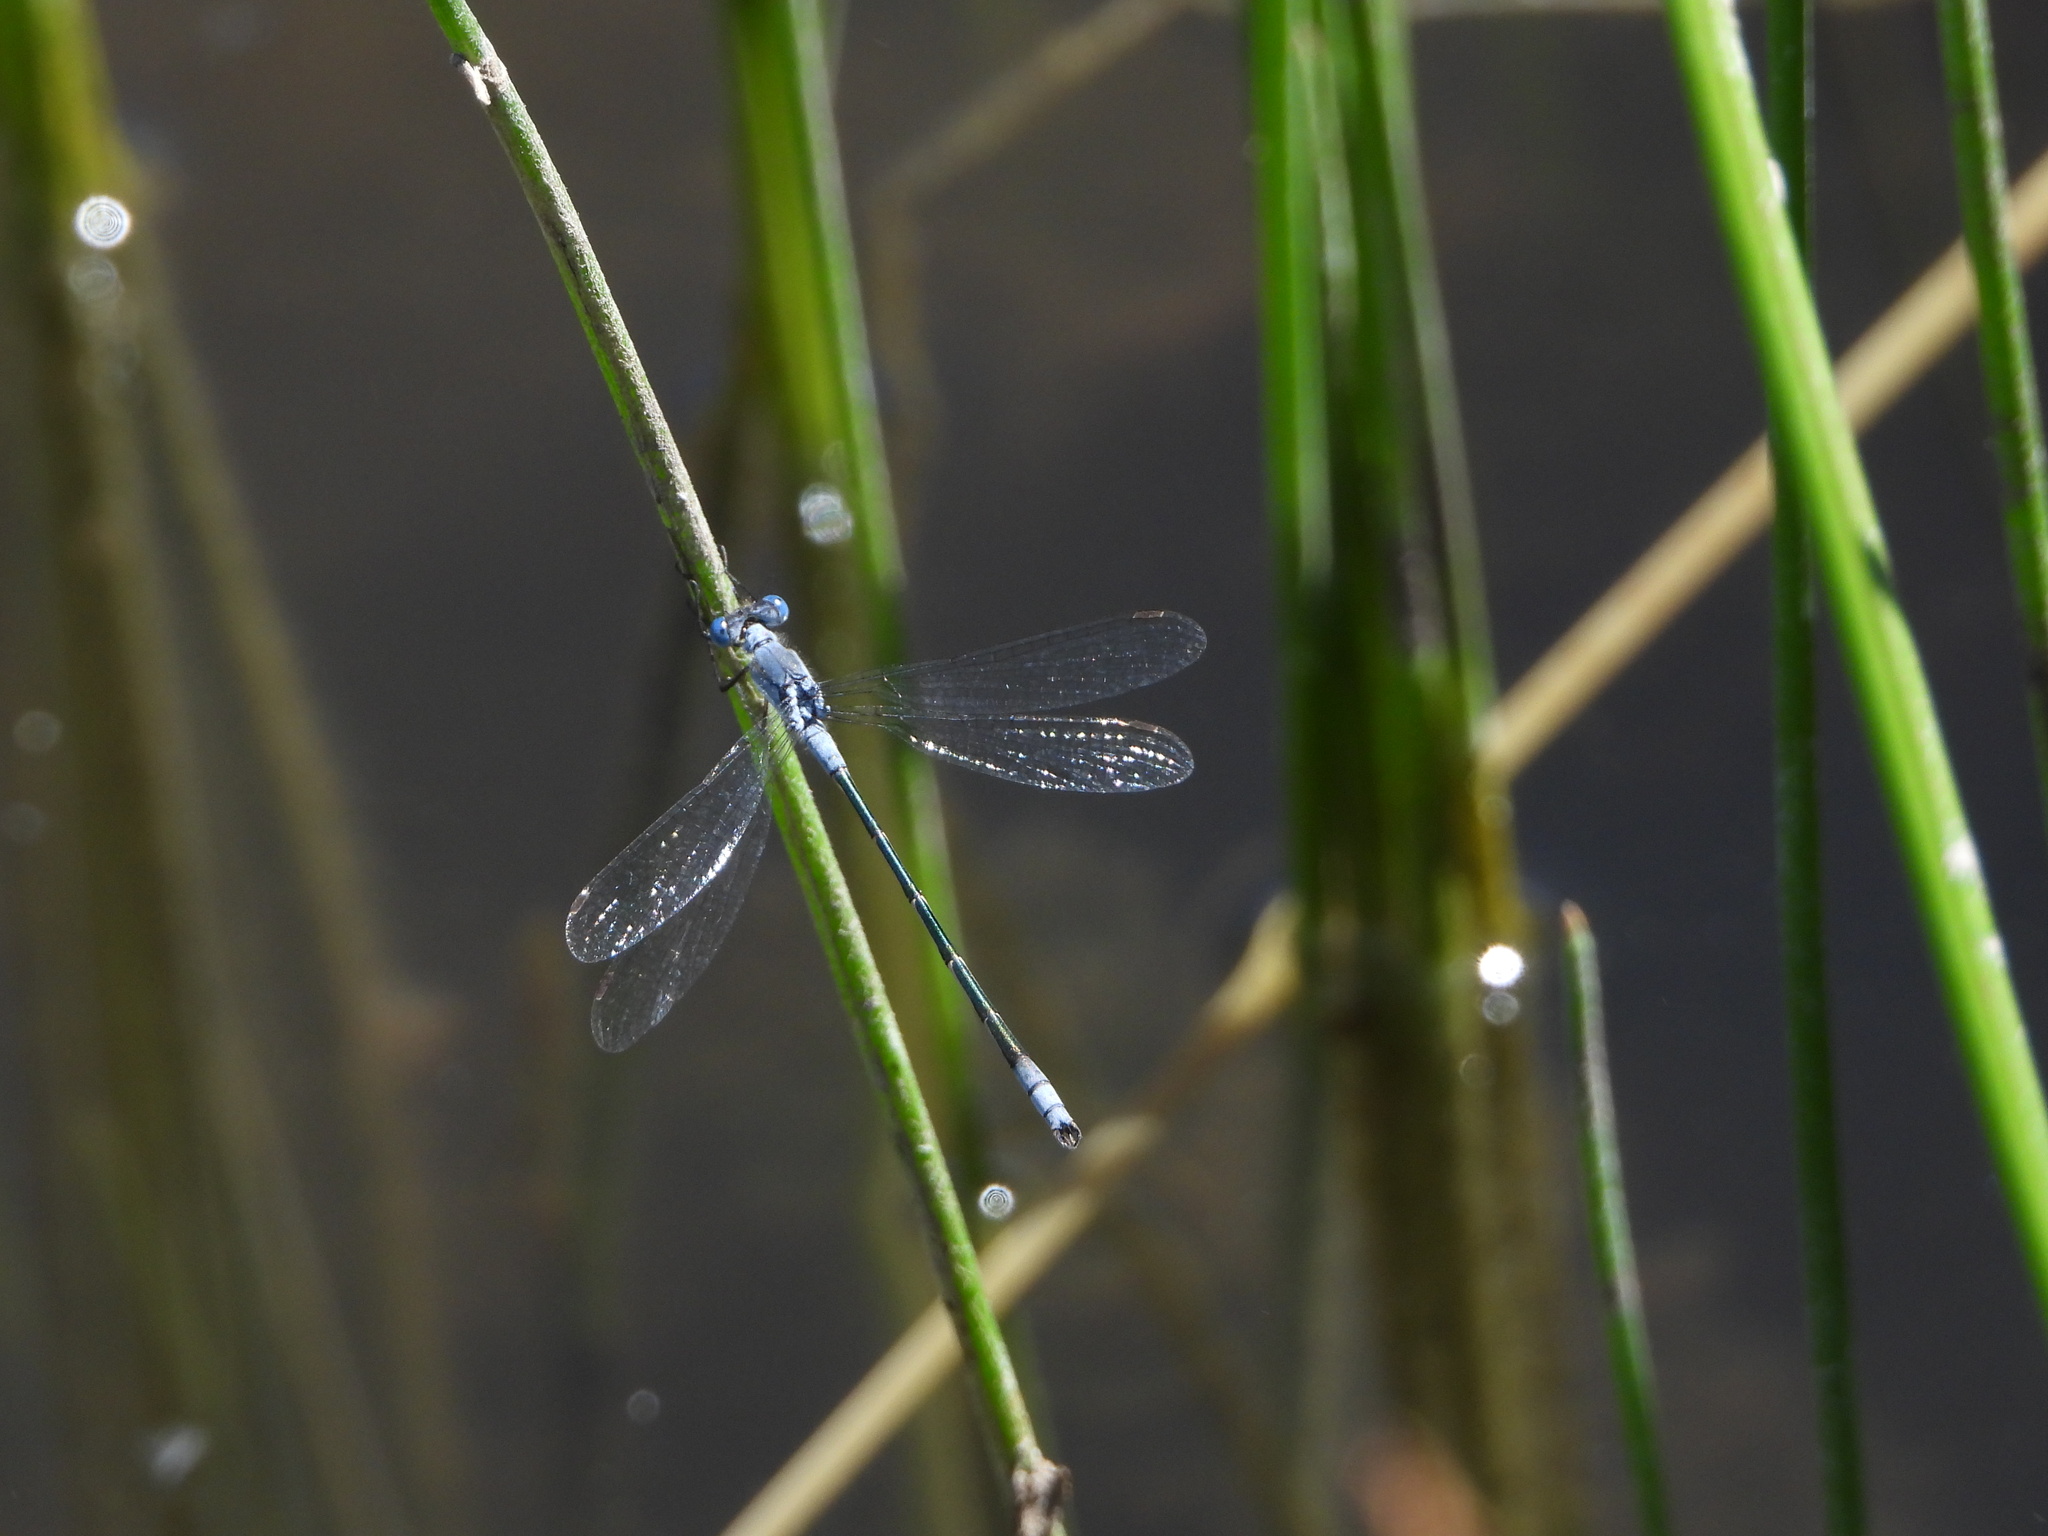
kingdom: Animalia
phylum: Arthropoda
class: Insecta
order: Odonata
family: Lestidae
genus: Lestes
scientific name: Lestes disjunctus
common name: Northern spreadwing
